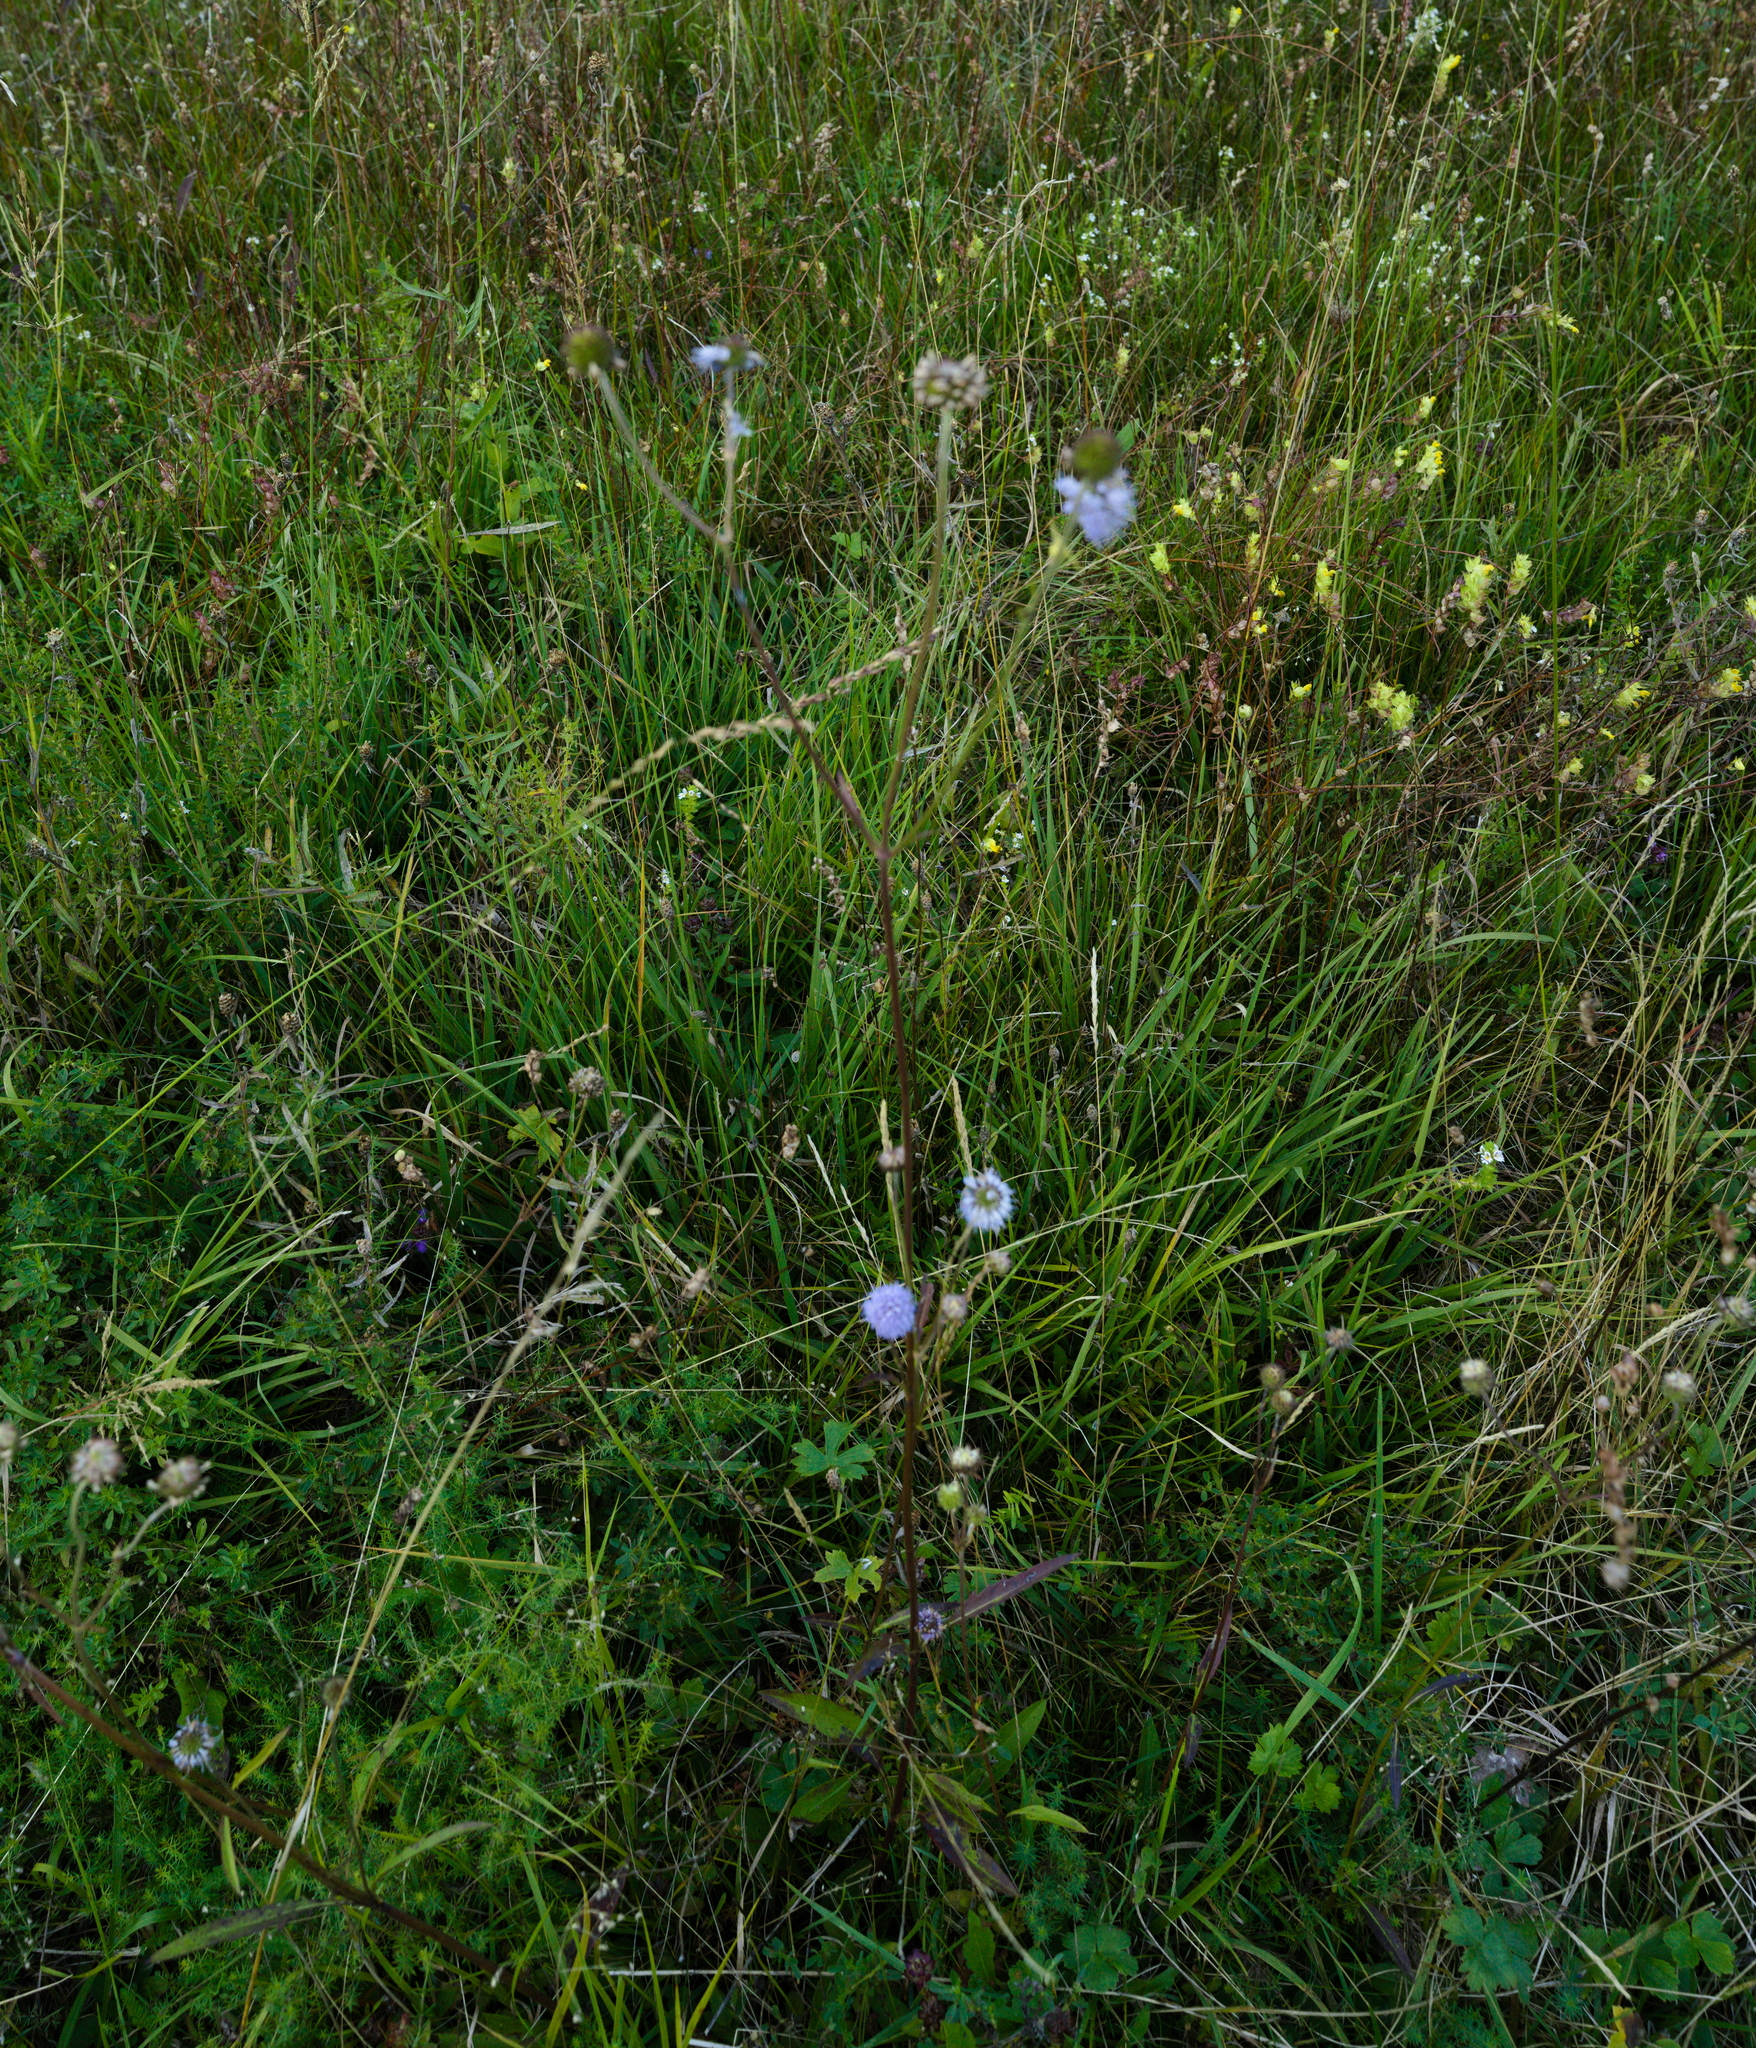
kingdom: Plantae
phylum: Tracheophyta
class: Magnoliopsida
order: Dipsacales
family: Caprifoliaceae
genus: Succisa
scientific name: Succisa pratensis
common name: Devil's-bit
